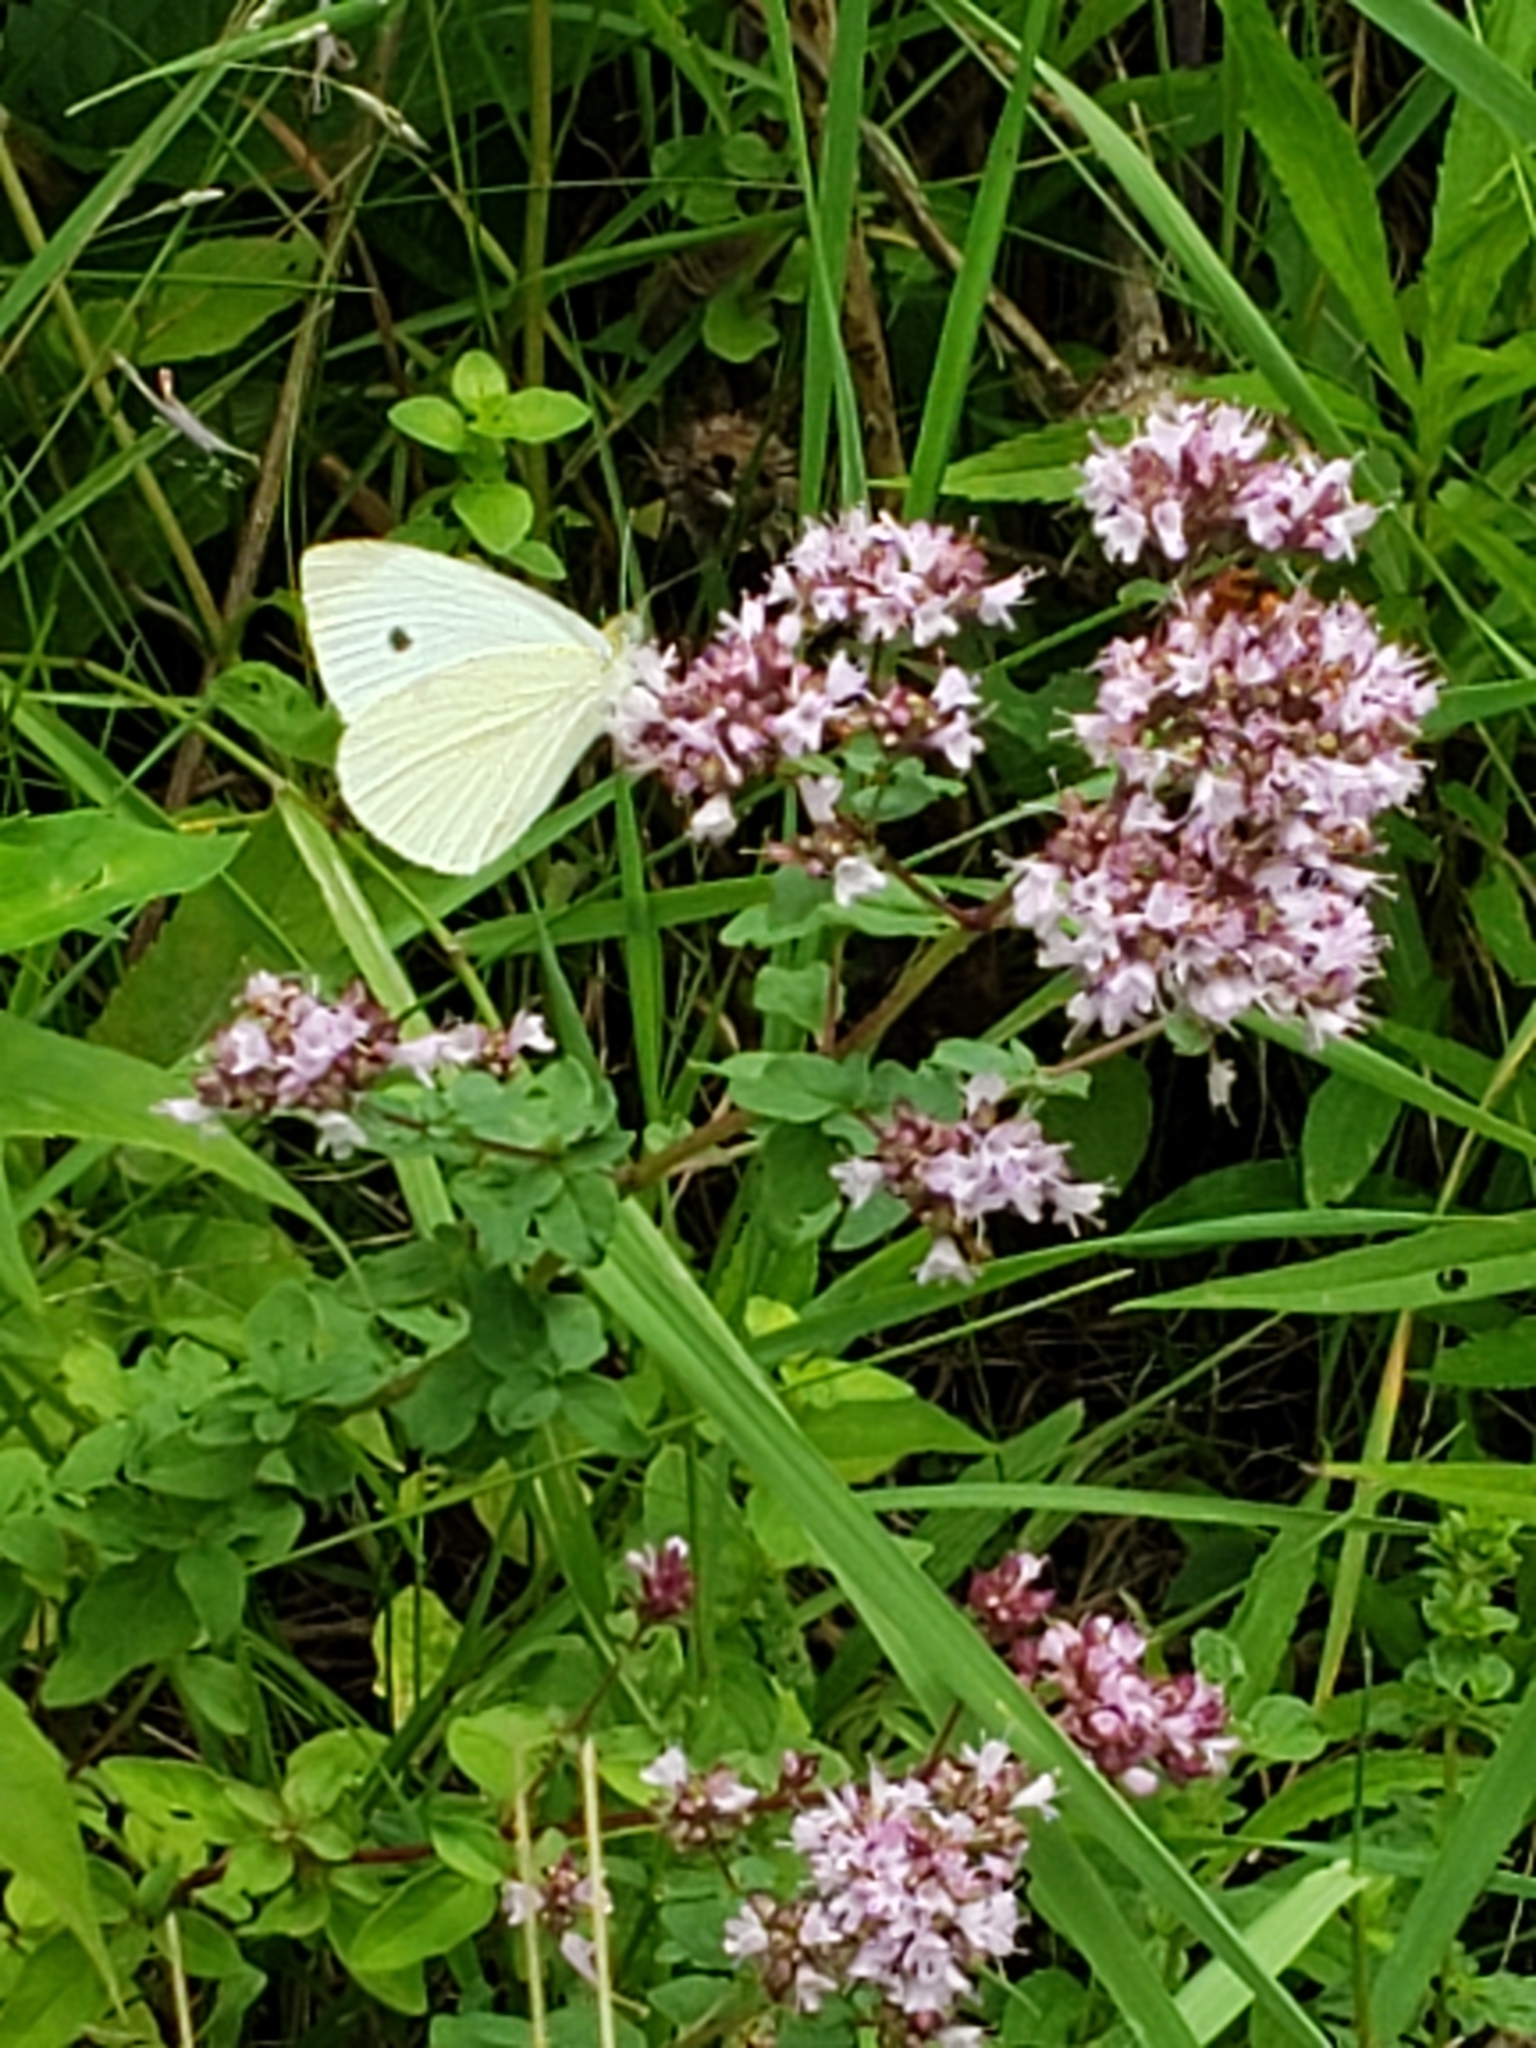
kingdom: Animalia
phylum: Arthropoda
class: Insecta
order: Lepidoptera
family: Pieridae
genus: Pieris
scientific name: Pieris rapae
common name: Small white
